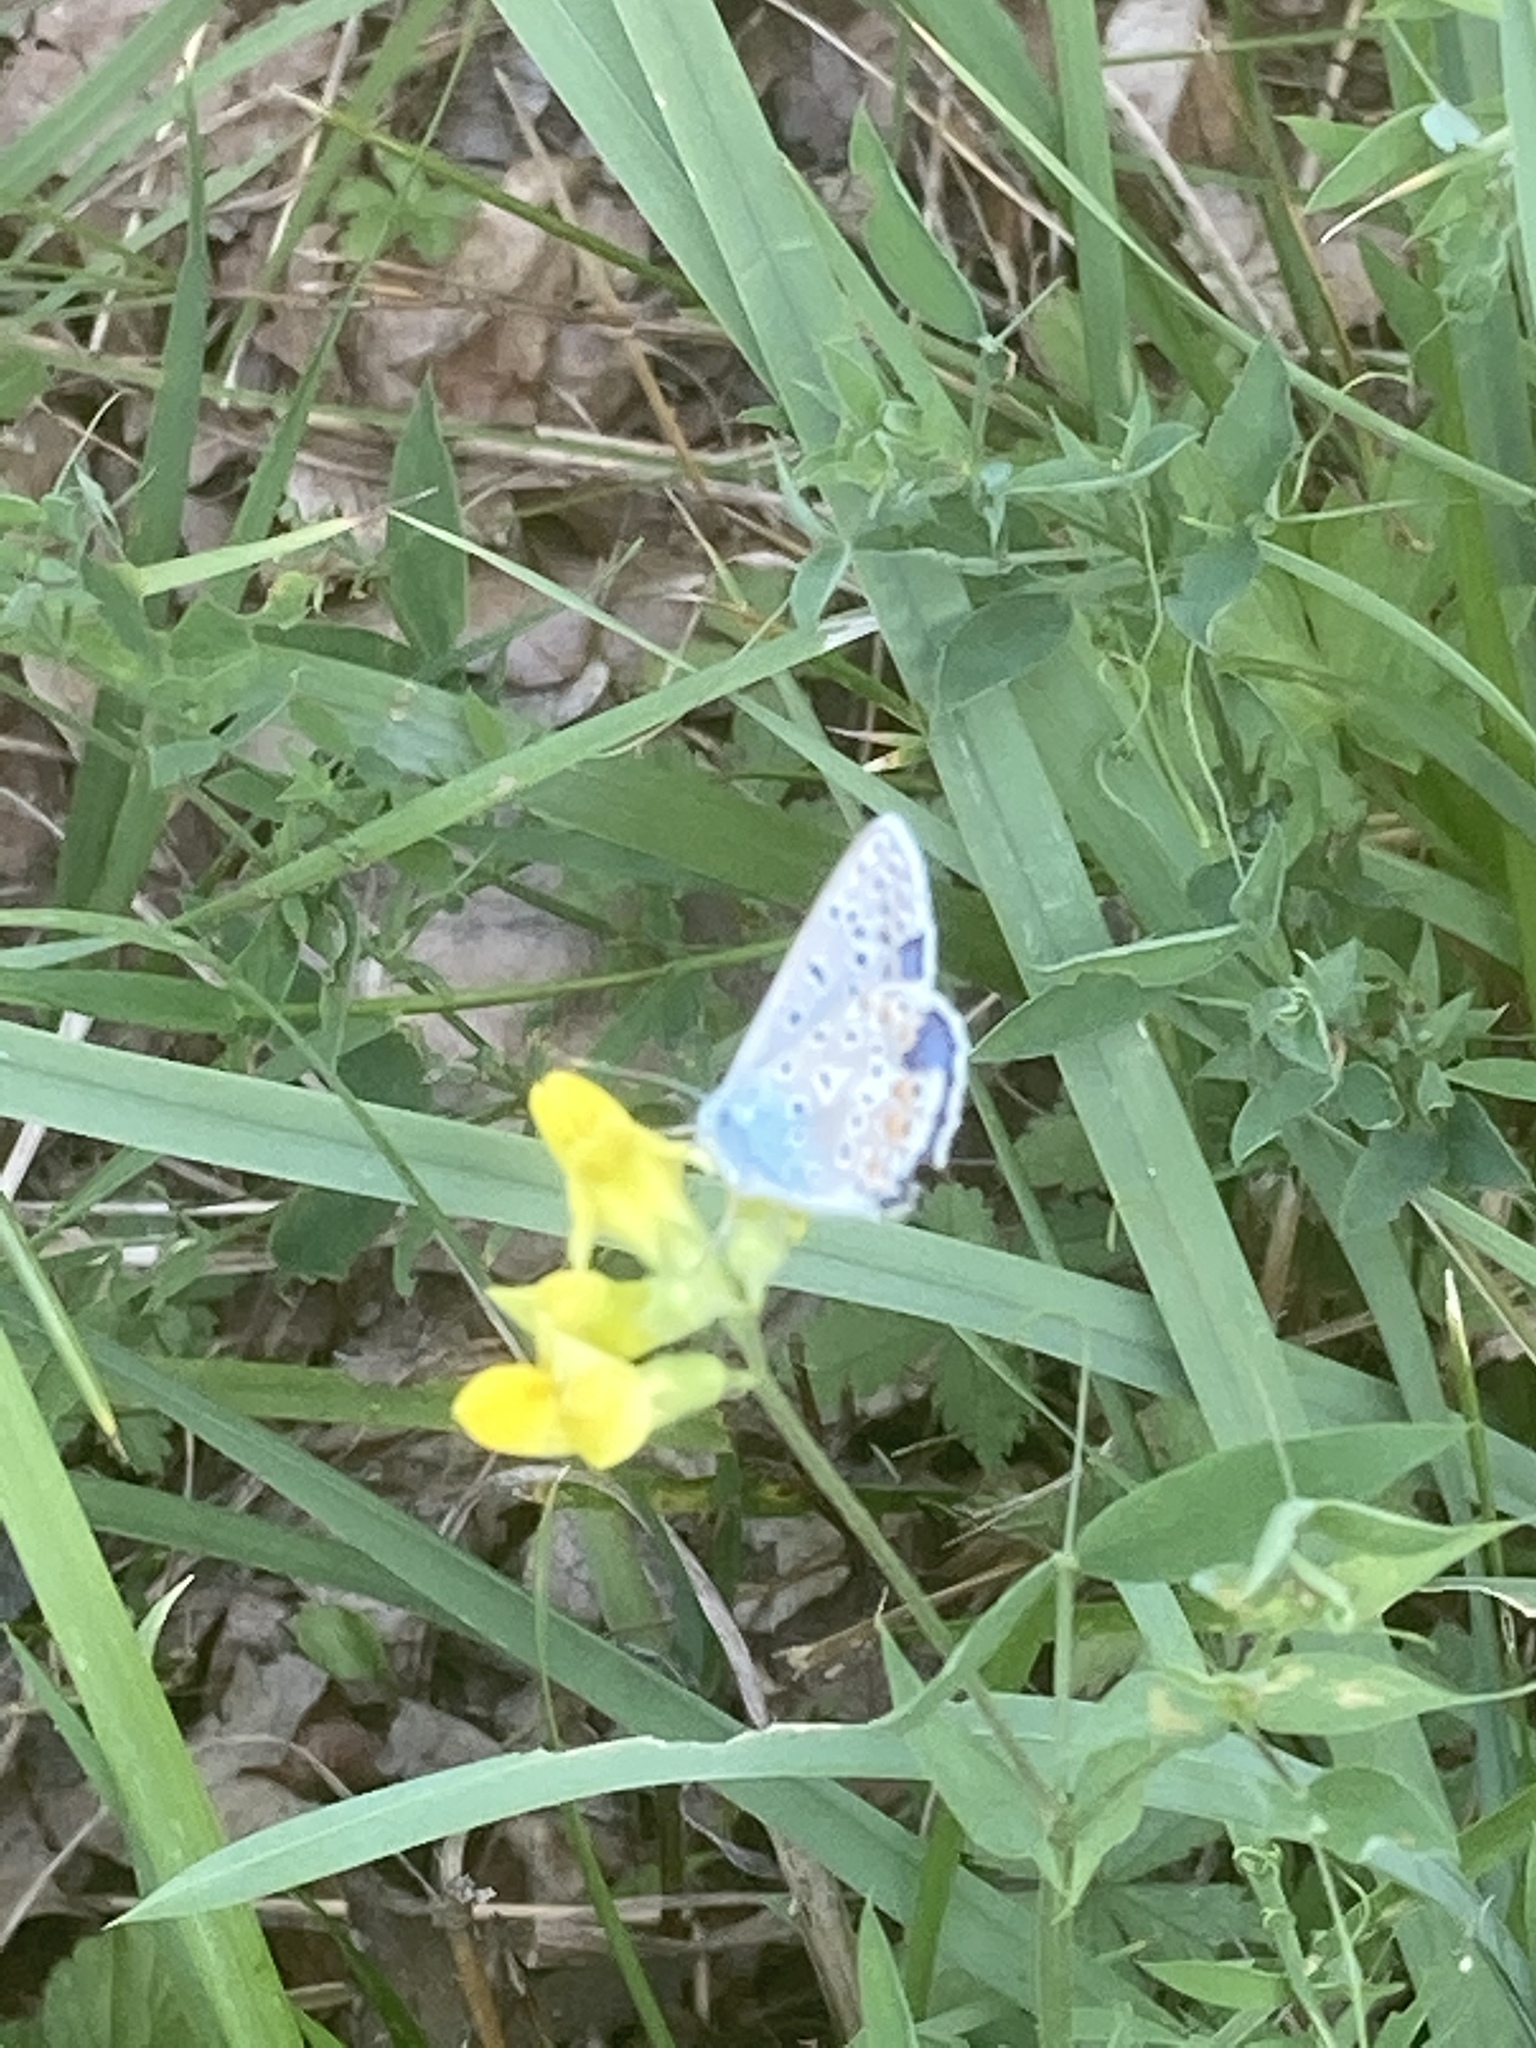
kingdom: Animalia
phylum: Arthropoda
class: Insecta
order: Lepidoptera
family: Lycaenidae
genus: Polyommatus
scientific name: Polyommatus icarus
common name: Common blue
